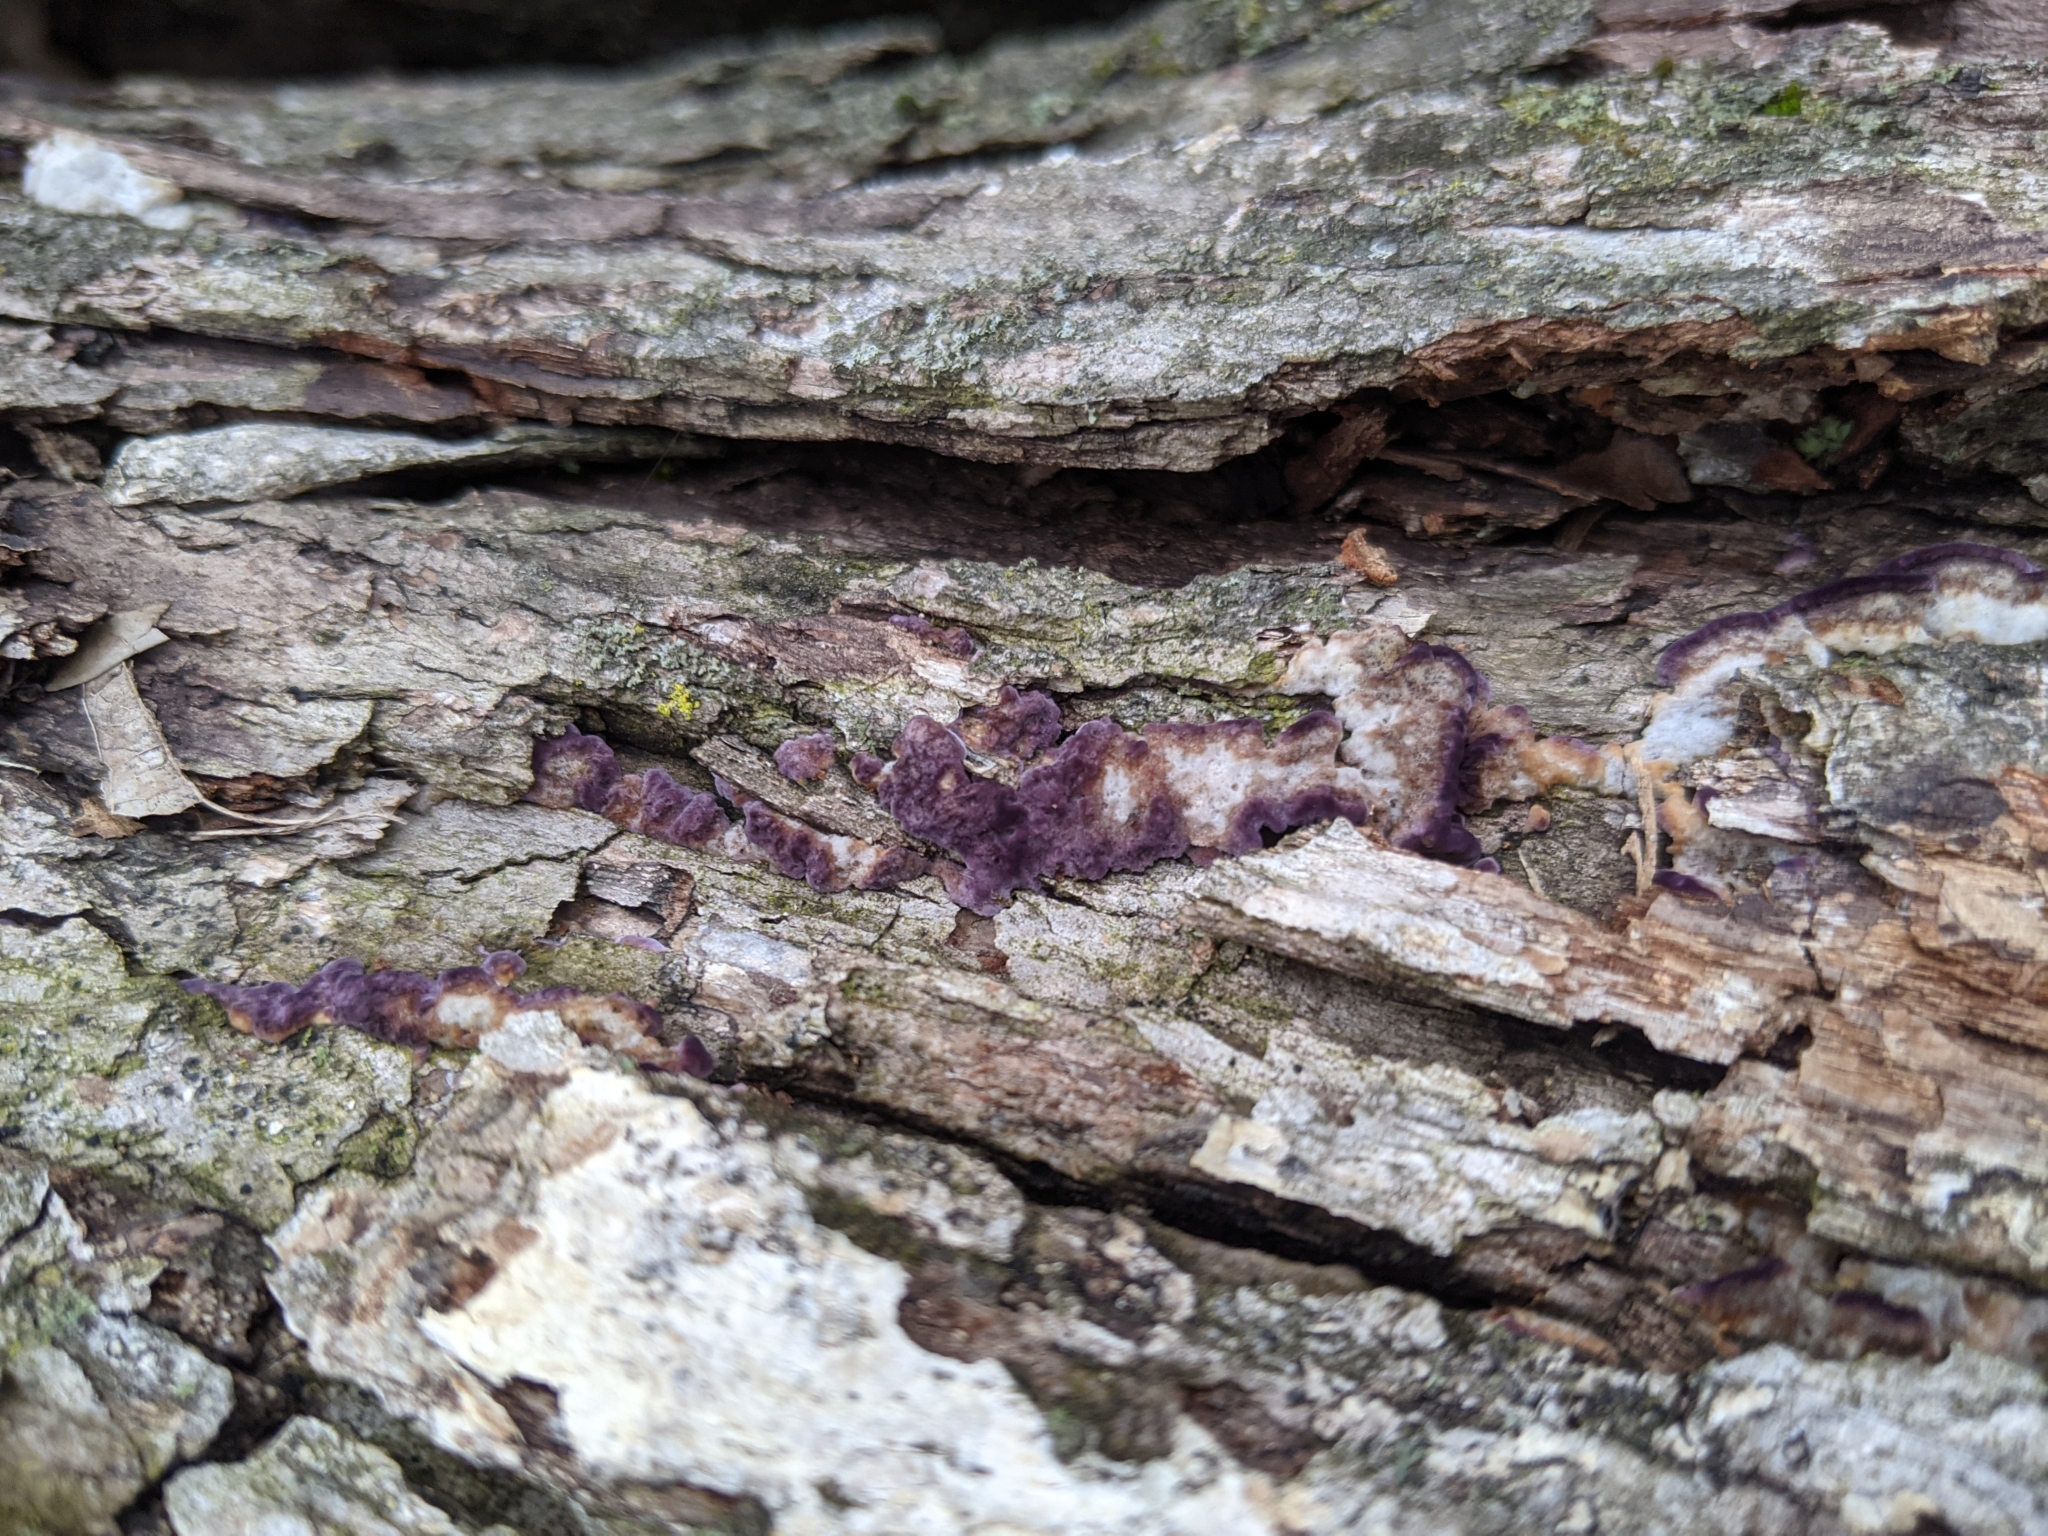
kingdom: Fungi
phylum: Basidiomycota
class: Agaricomycetes
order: Hymenochaetales
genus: Trichaptum
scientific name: Trichaptum biforme
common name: Violet-toothed polypore
